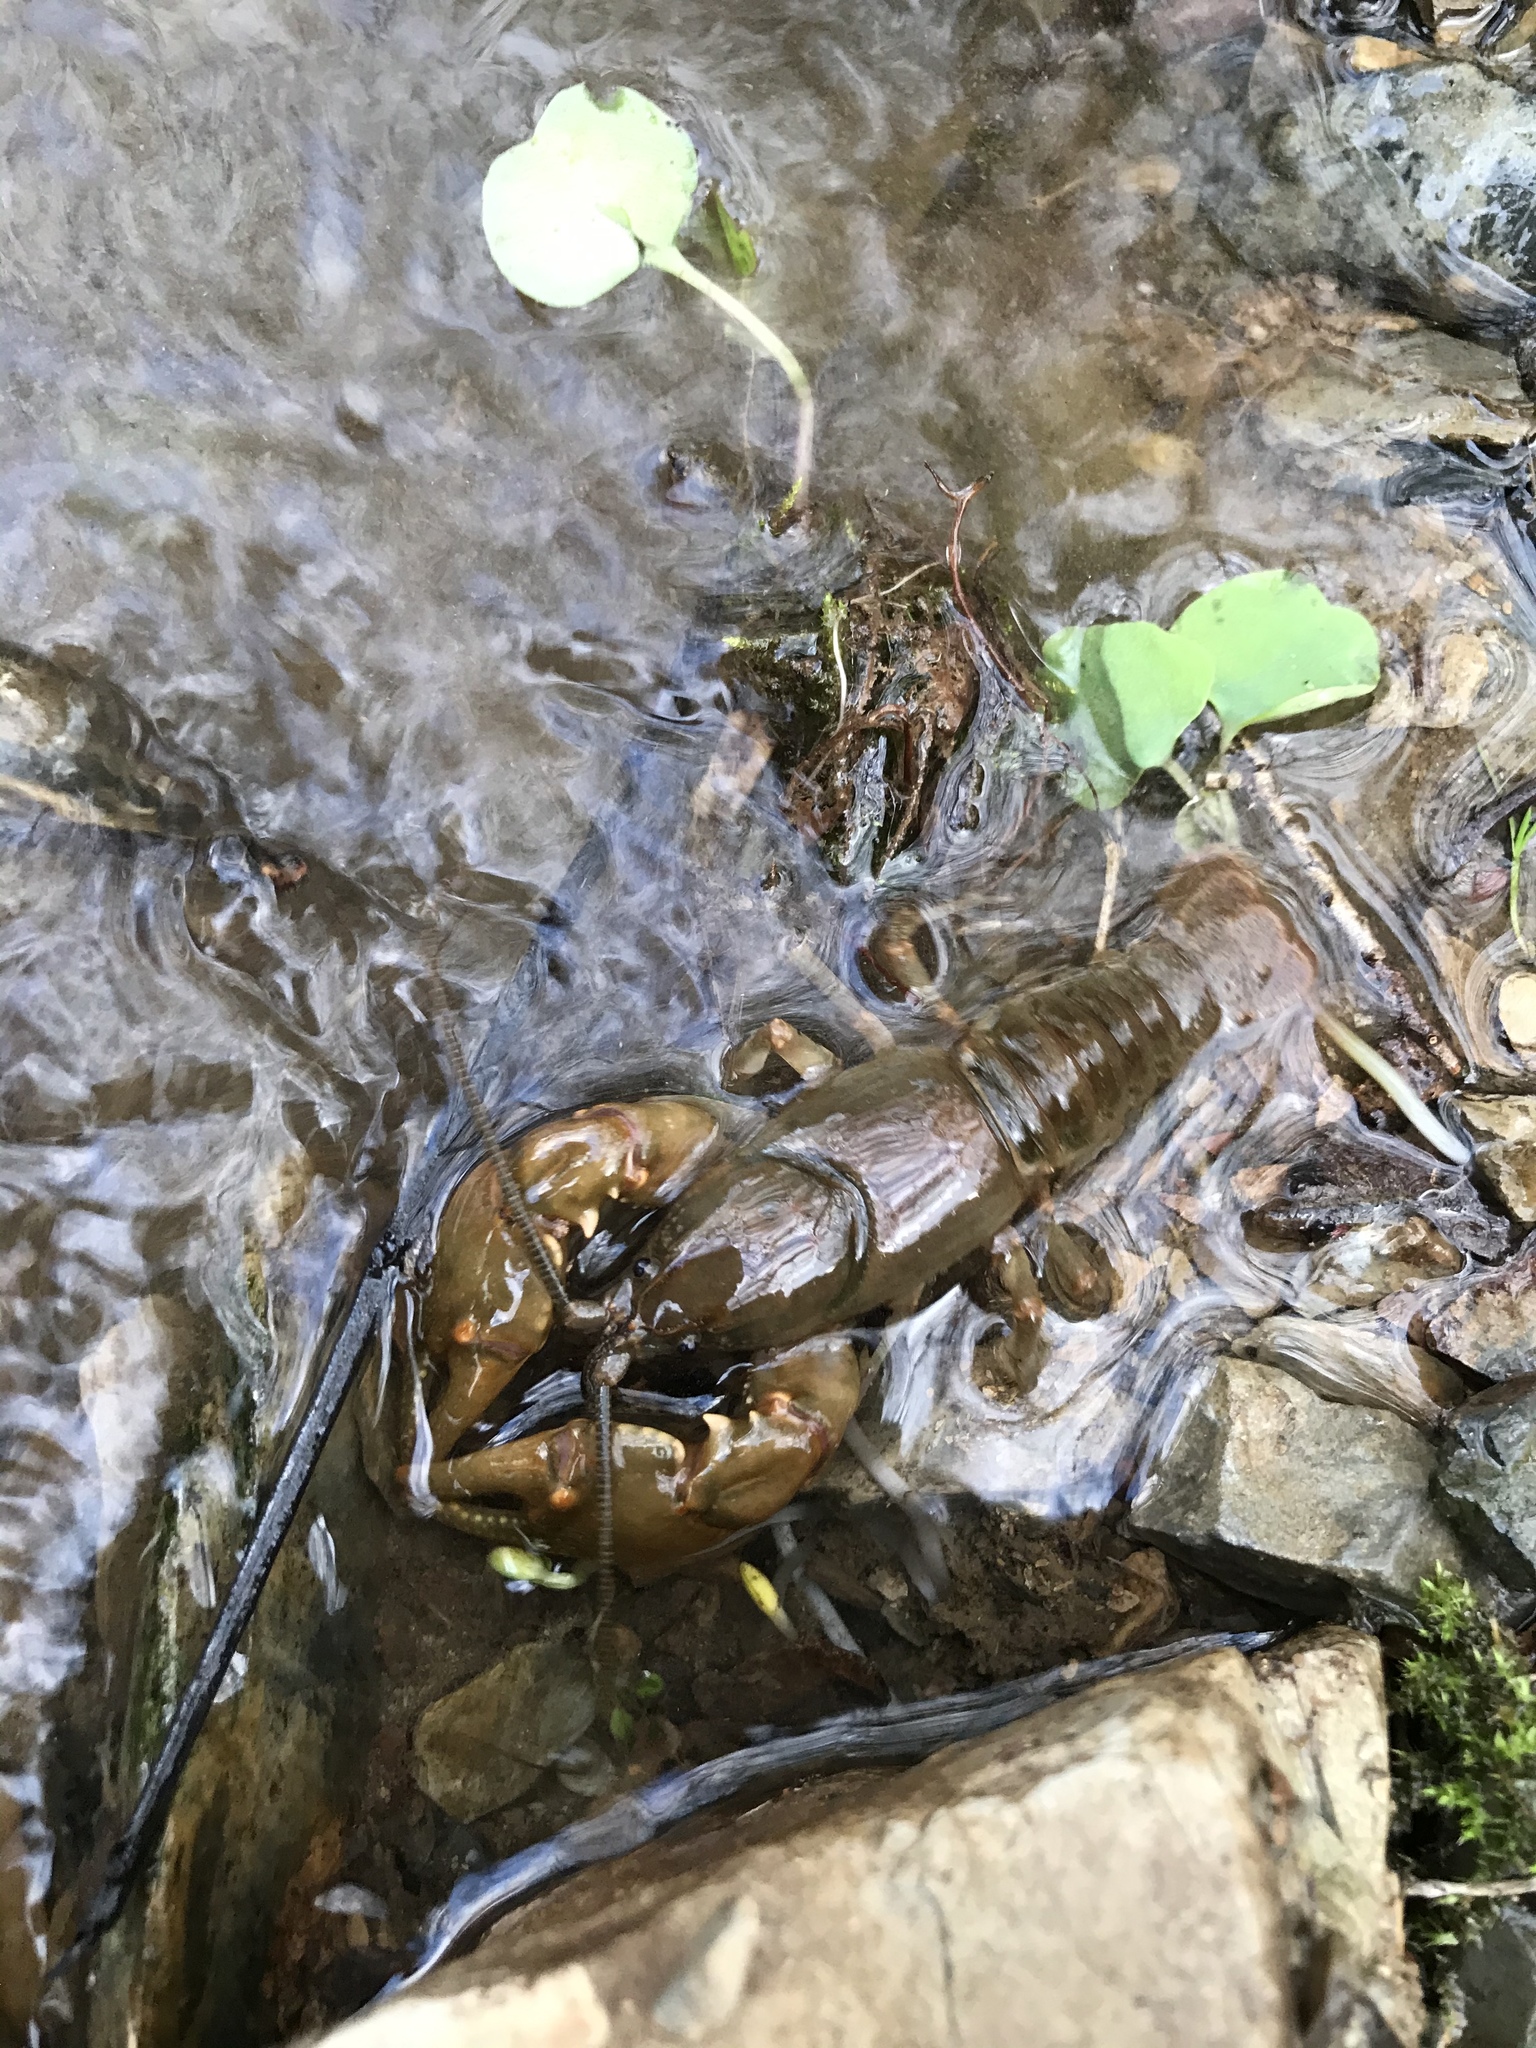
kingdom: Animalia
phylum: Arthropoda
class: Malacostraca
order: Decapoda
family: Cambaridae
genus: Cambarus
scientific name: Cambarus bartonii
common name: Appalachian brook crayfish
